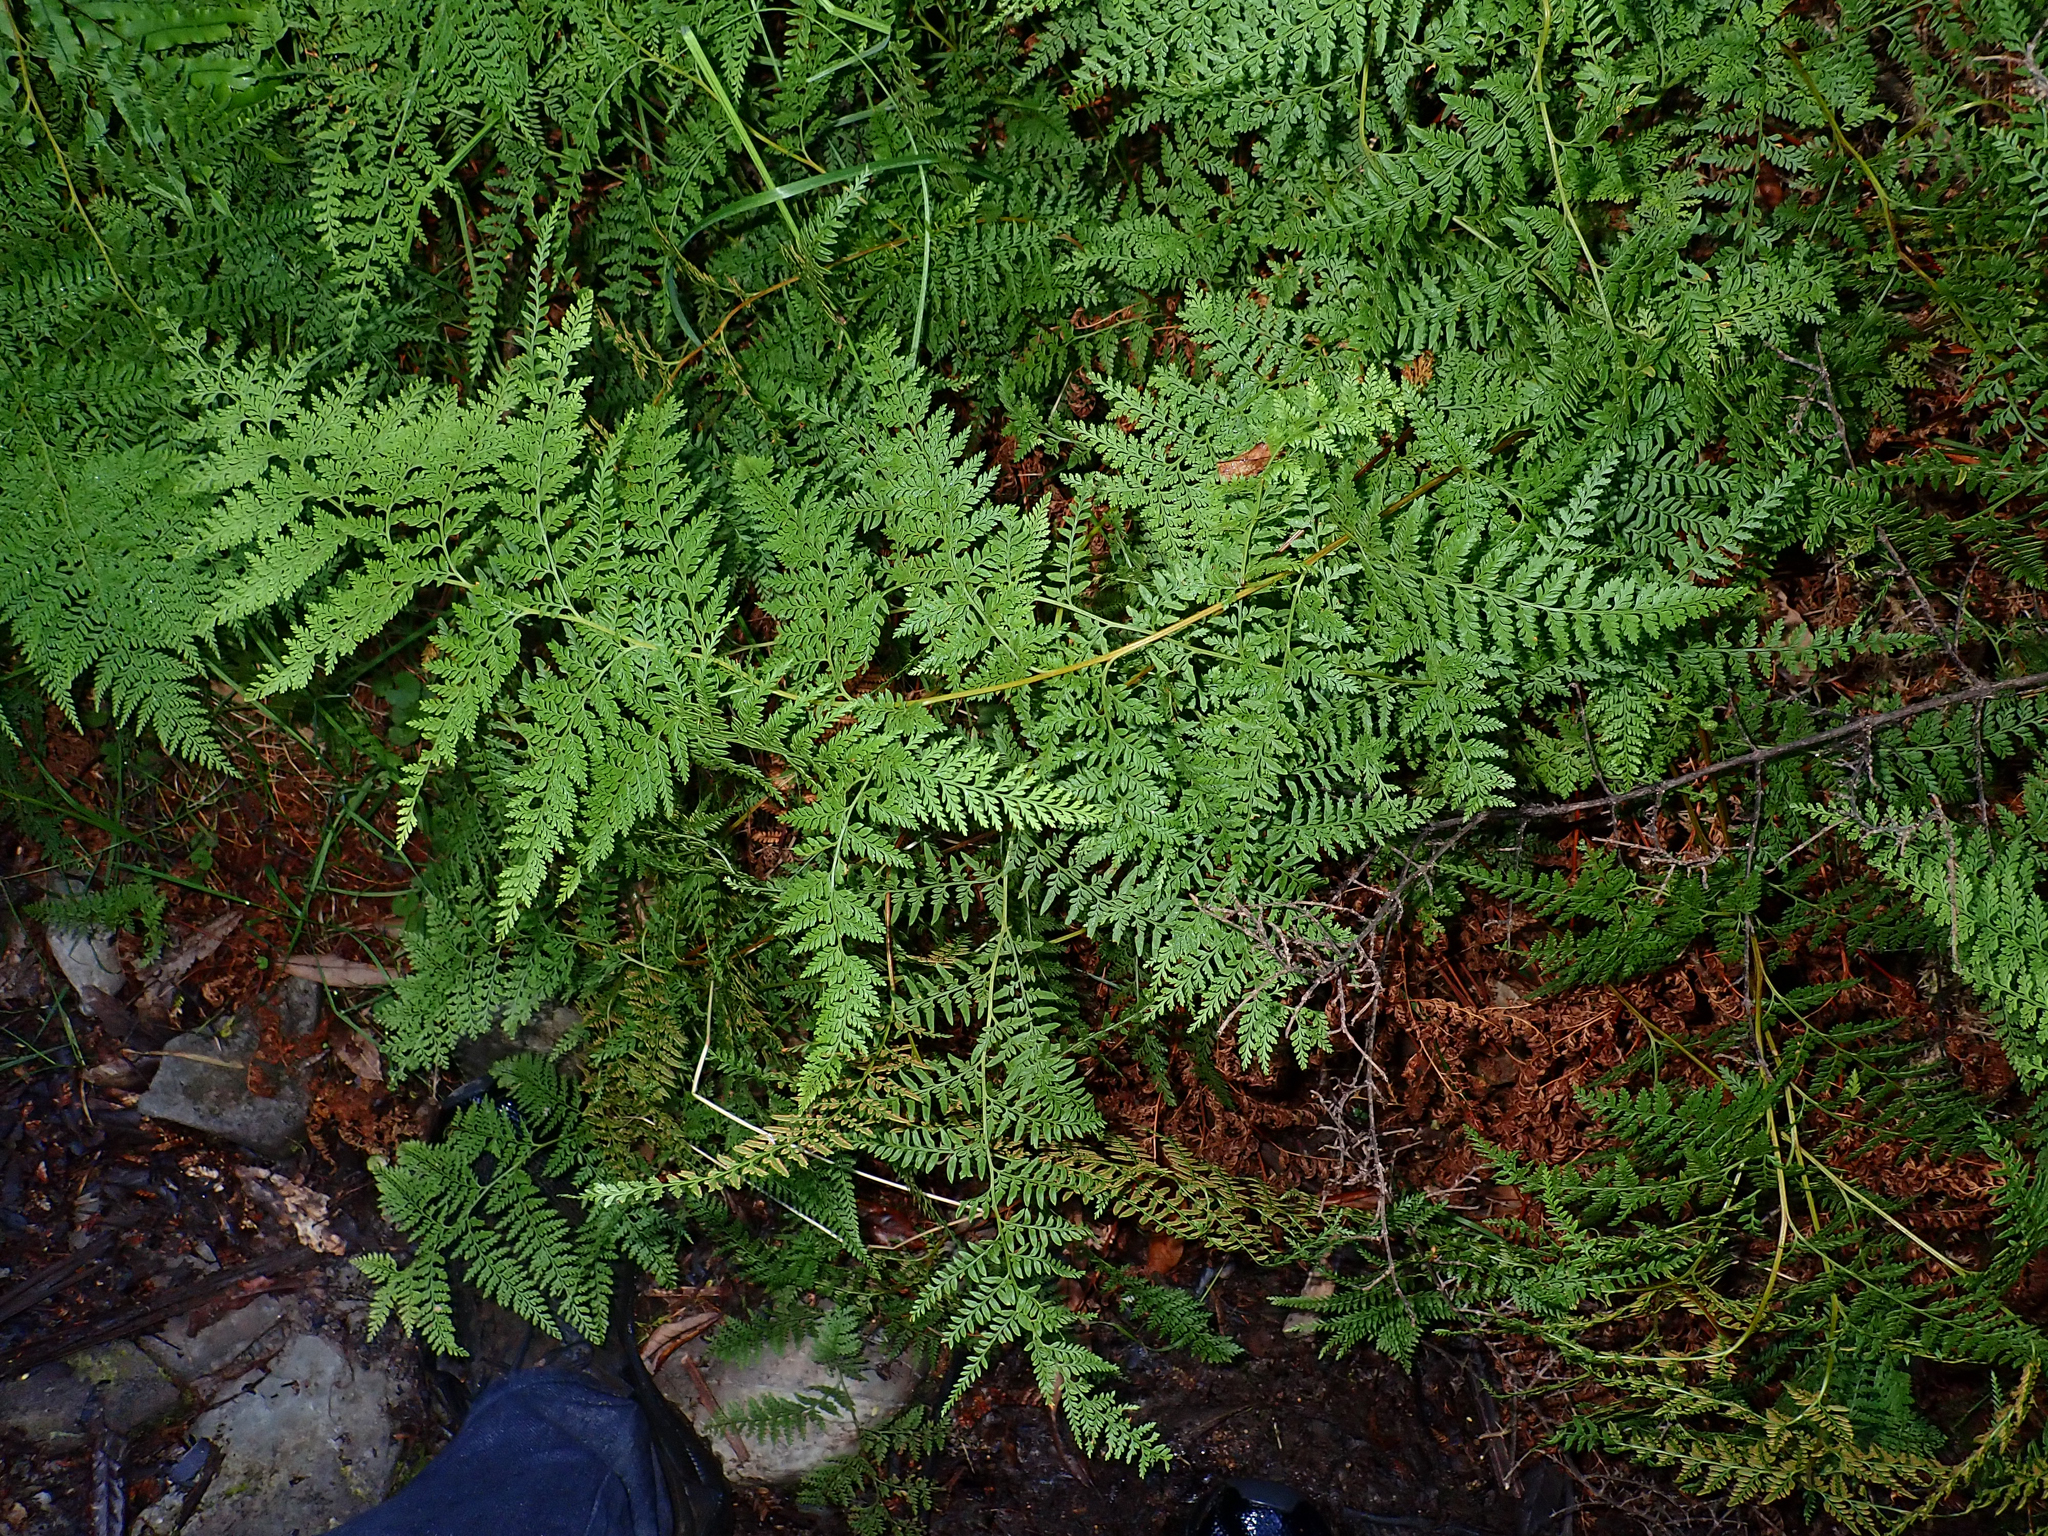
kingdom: Plantae
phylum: Tracheophyta
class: Polypodiopsida
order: Polypodiales
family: Dennstaedtiaceae
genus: Paesia
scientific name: Paesia scaberula
